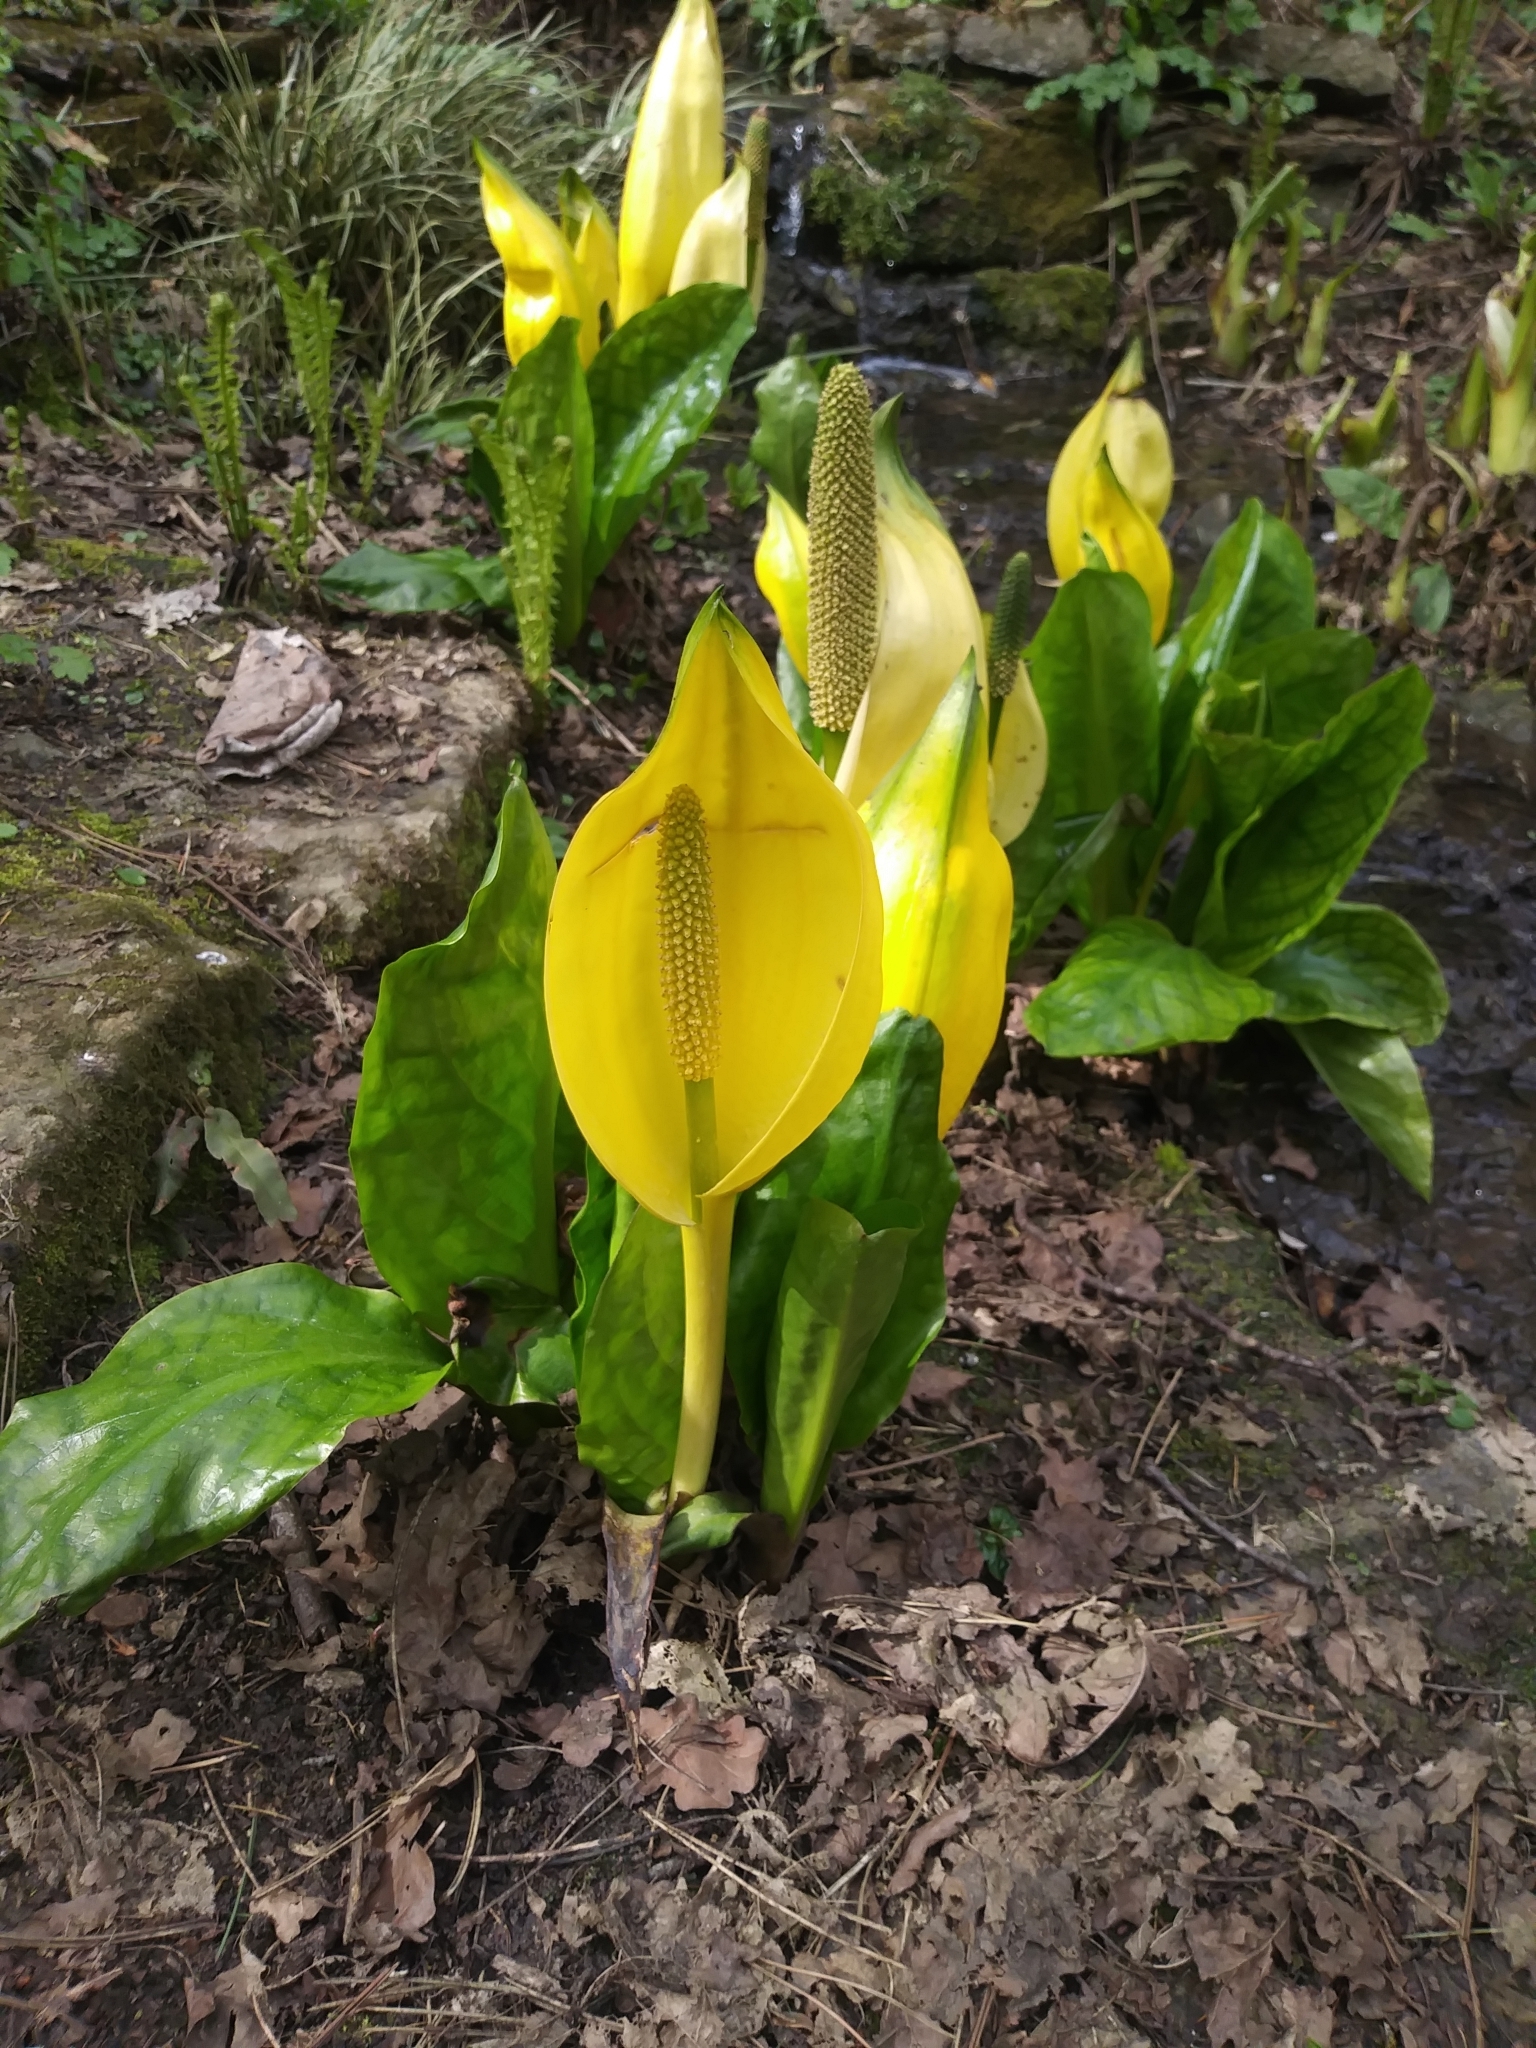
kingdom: Plantae
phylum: Tracheophyta
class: Liliopsida
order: Alismatales
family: Araceae
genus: Lysichiton
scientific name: Lysichiton americanus
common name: American skunk cabbage
